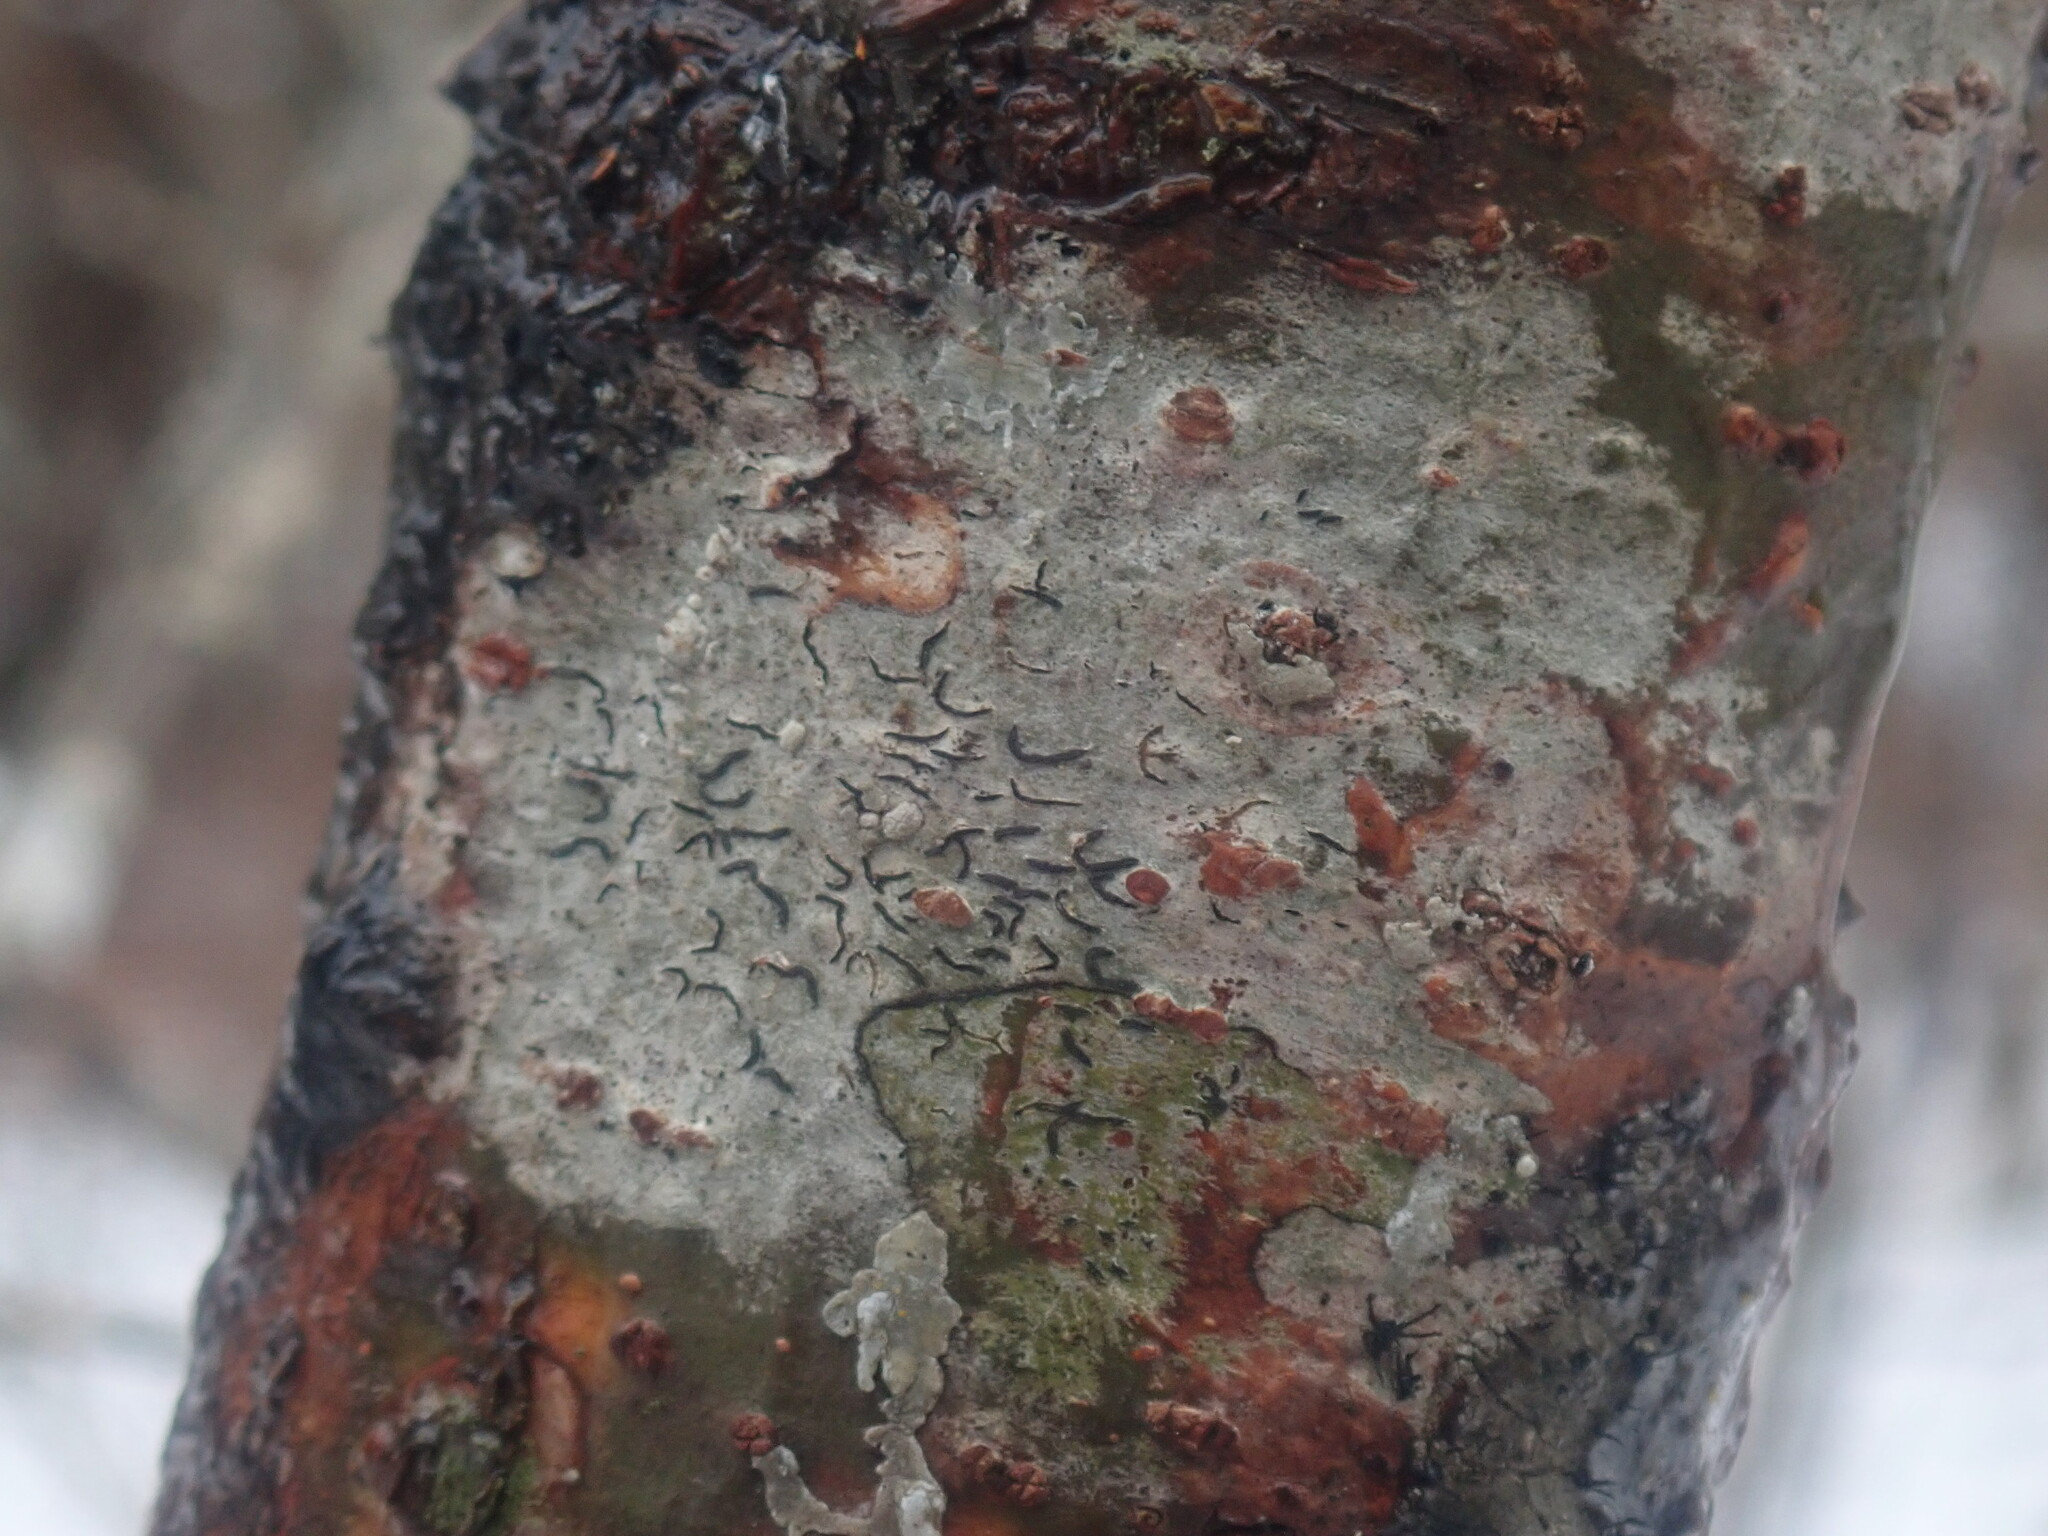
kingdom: Fungi
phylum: Ascomycota
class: Lecanoromycetes
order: Ostropales
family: Graphidaceae
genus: Graphis
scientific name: Graphis scripta
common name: Script lichen
